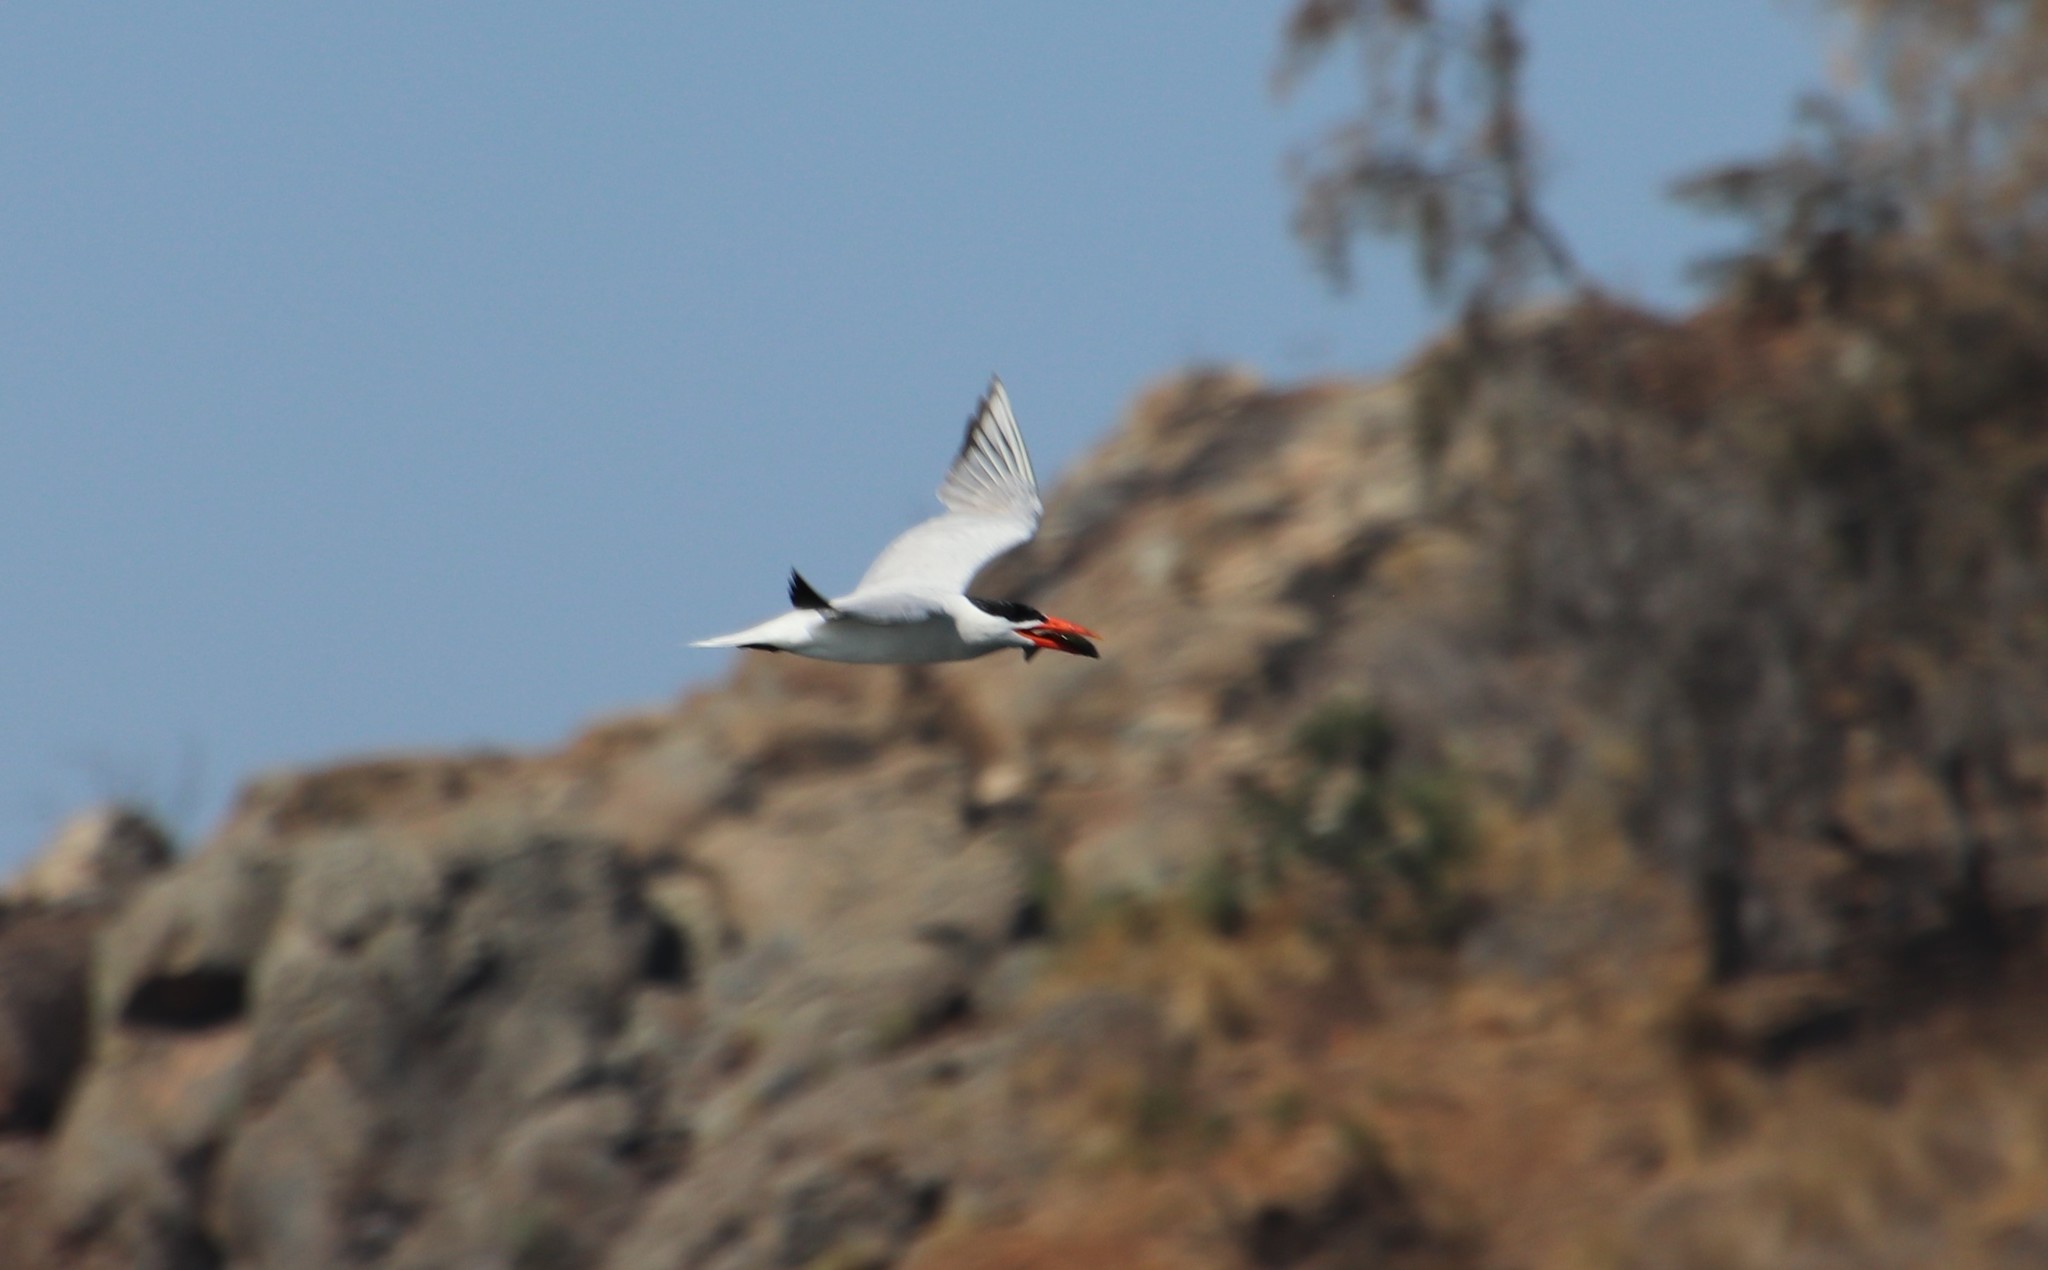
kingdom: Animalia
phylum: Chordata
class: Aves
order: Charadriiformes
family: Laridae
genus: Hydroprogne
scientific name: Hydroprogne caspia
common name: Caspian tern
